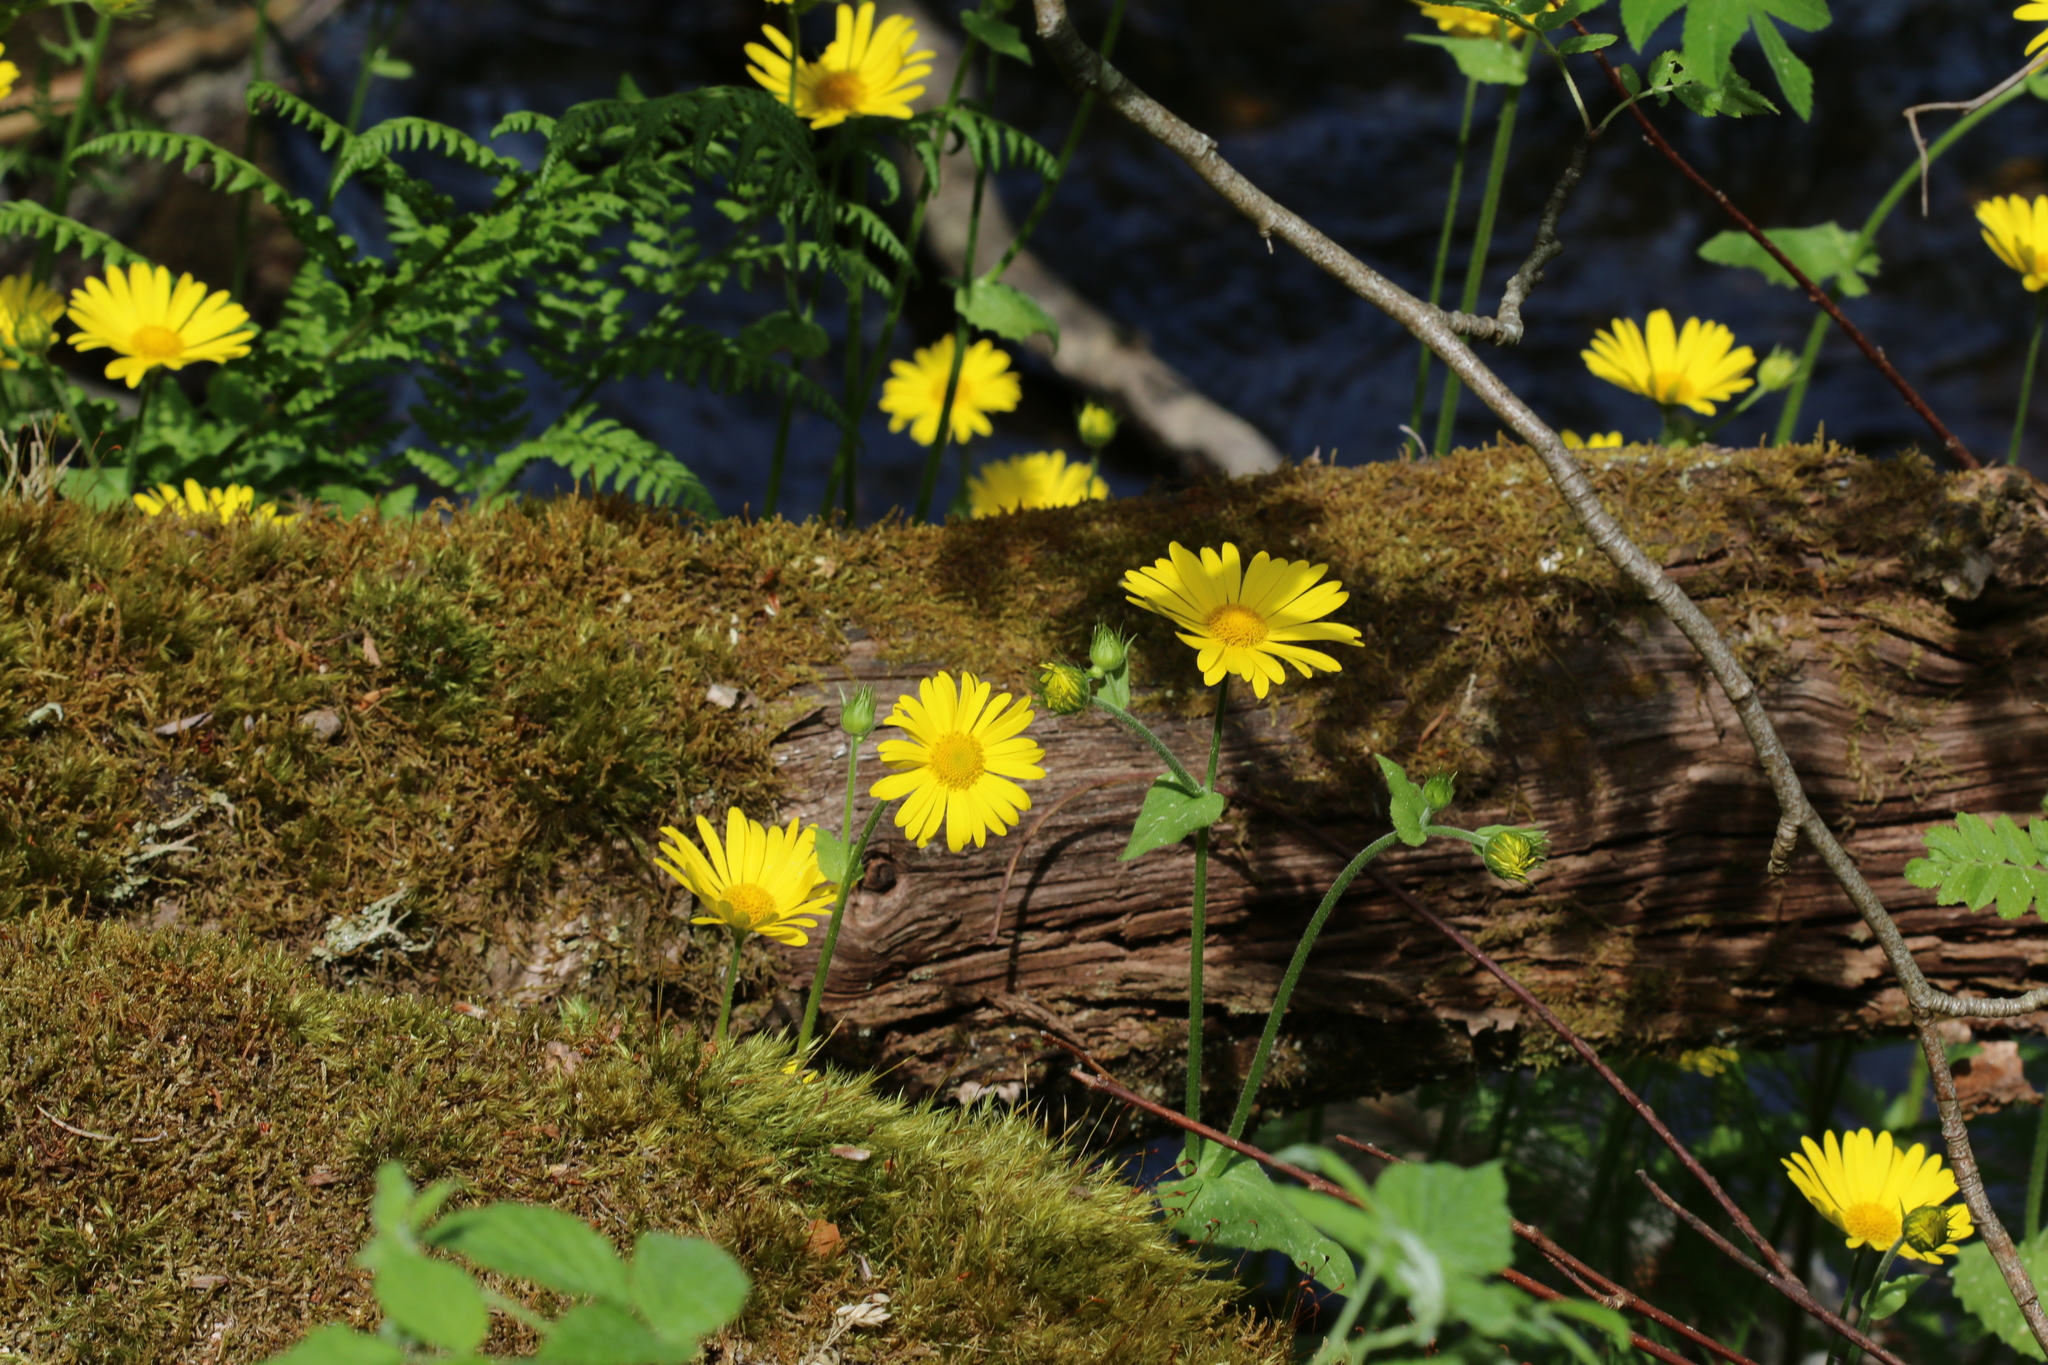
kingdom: Plantae
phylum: Tracheophyta
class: Magnoliopsida
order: Asterales
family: Asteraceae
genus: Doronicum
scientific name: Doronicum pardalianches
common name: Leopard's-bane
